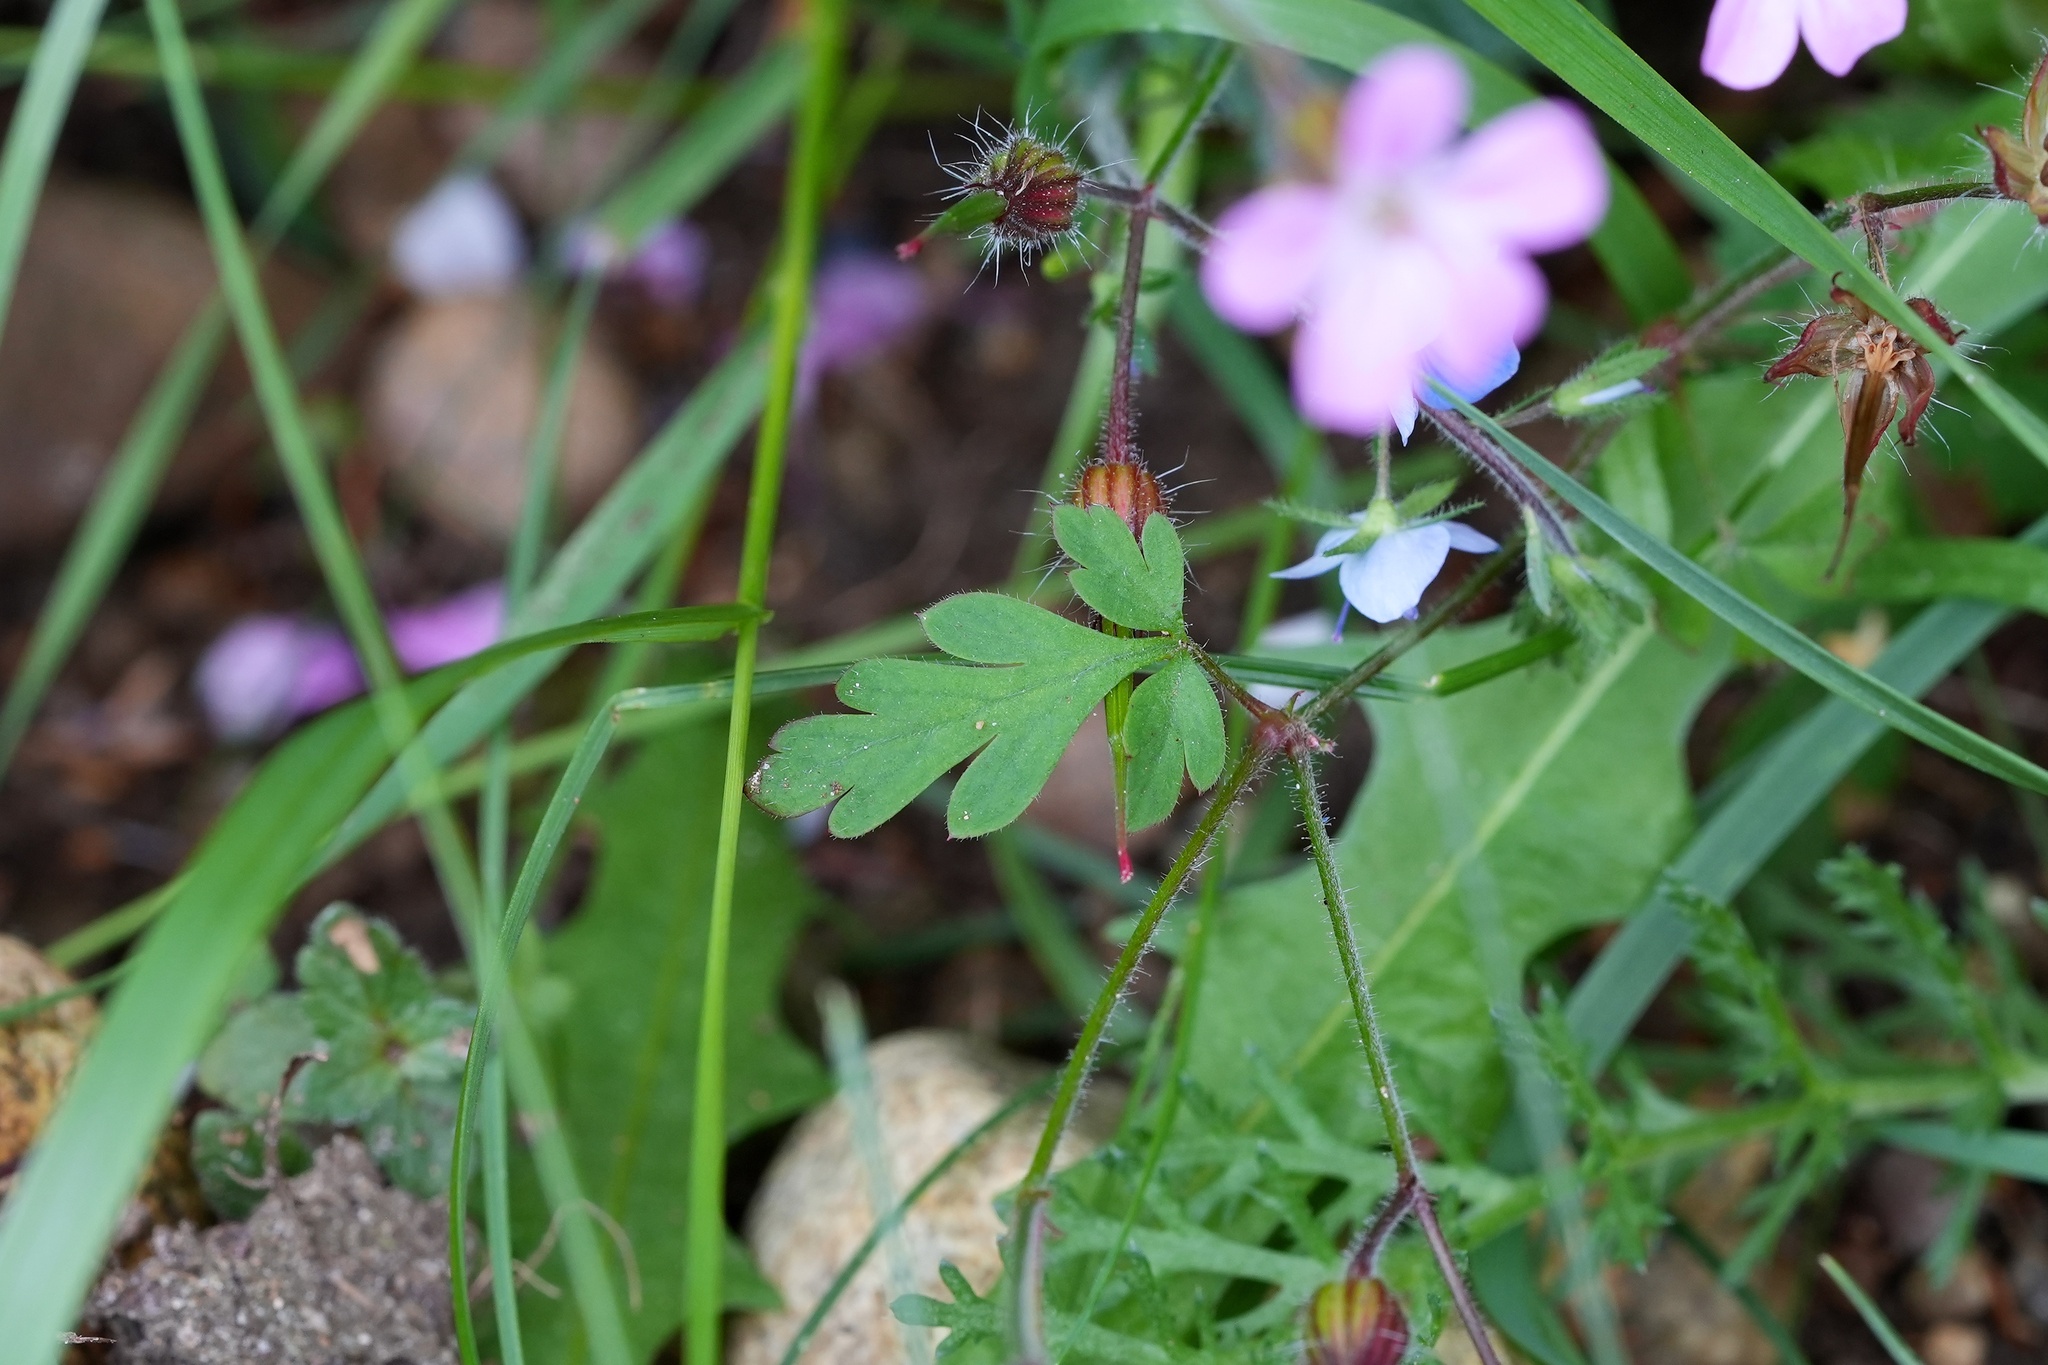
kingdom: Plantae
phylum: Tracheophyta
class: Magnoliopsida
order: Geraniales
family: Geraniaceae
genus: Geranium
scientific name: Geranium robertianum
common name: Herb-robert
